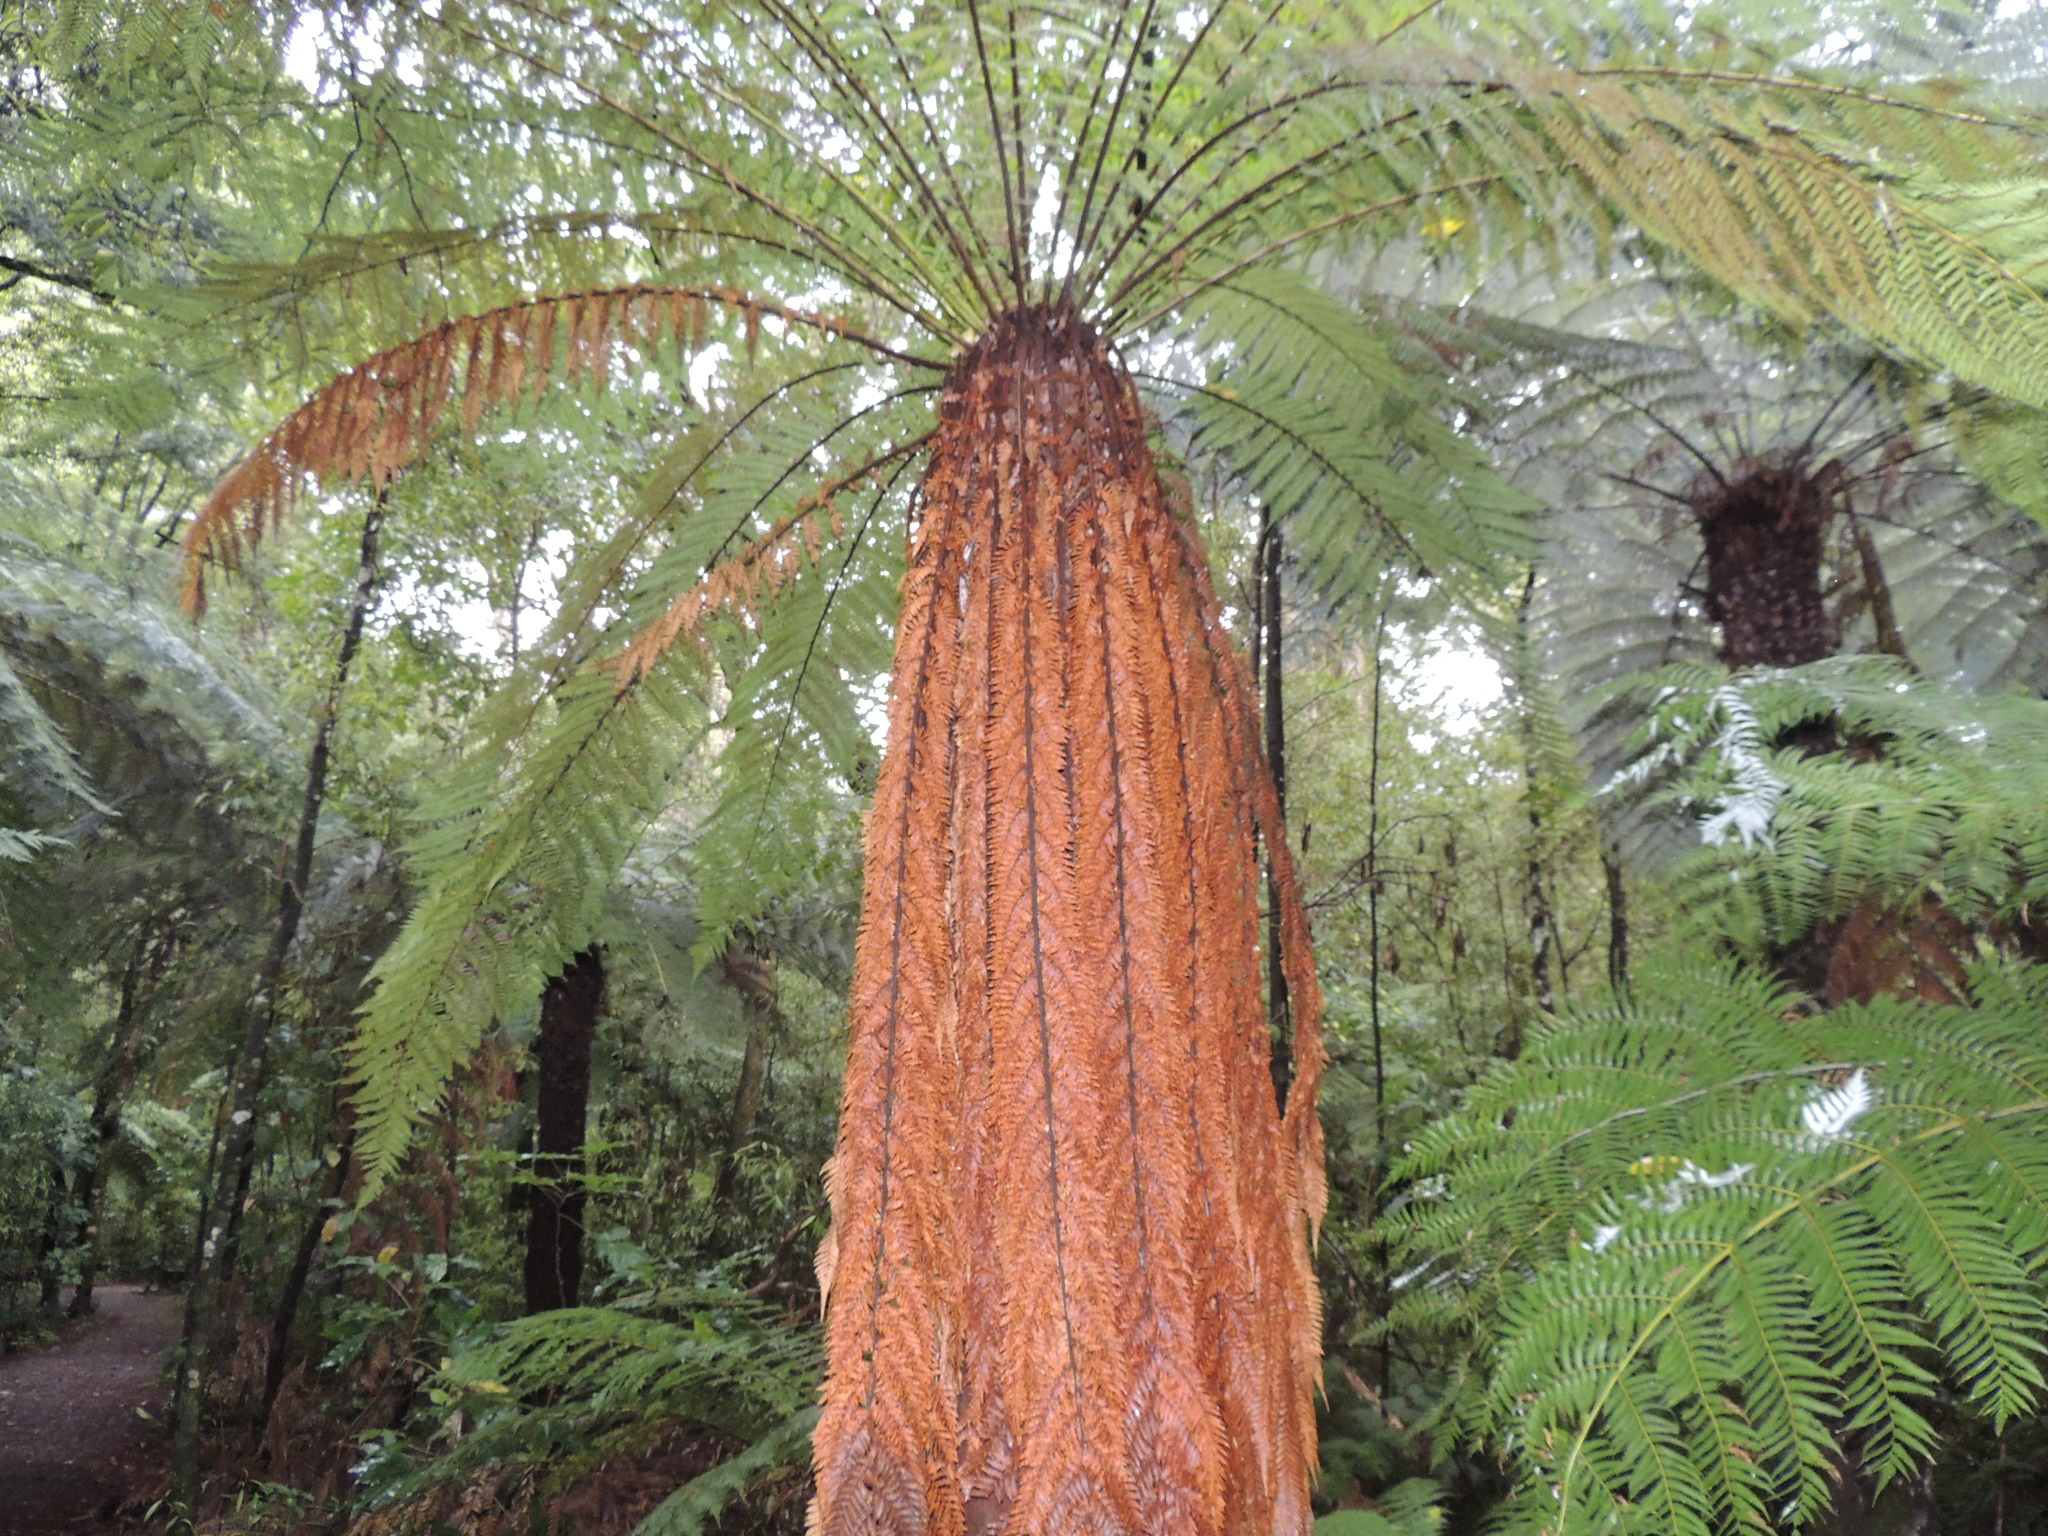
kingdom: Plantae
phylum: Tracheophyta
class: Polypodiopsida
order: Cyatheales
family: Dicksoniaceae
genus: Dicksonia
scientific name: Dicksonia fibrosa
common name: Golden tree fern
